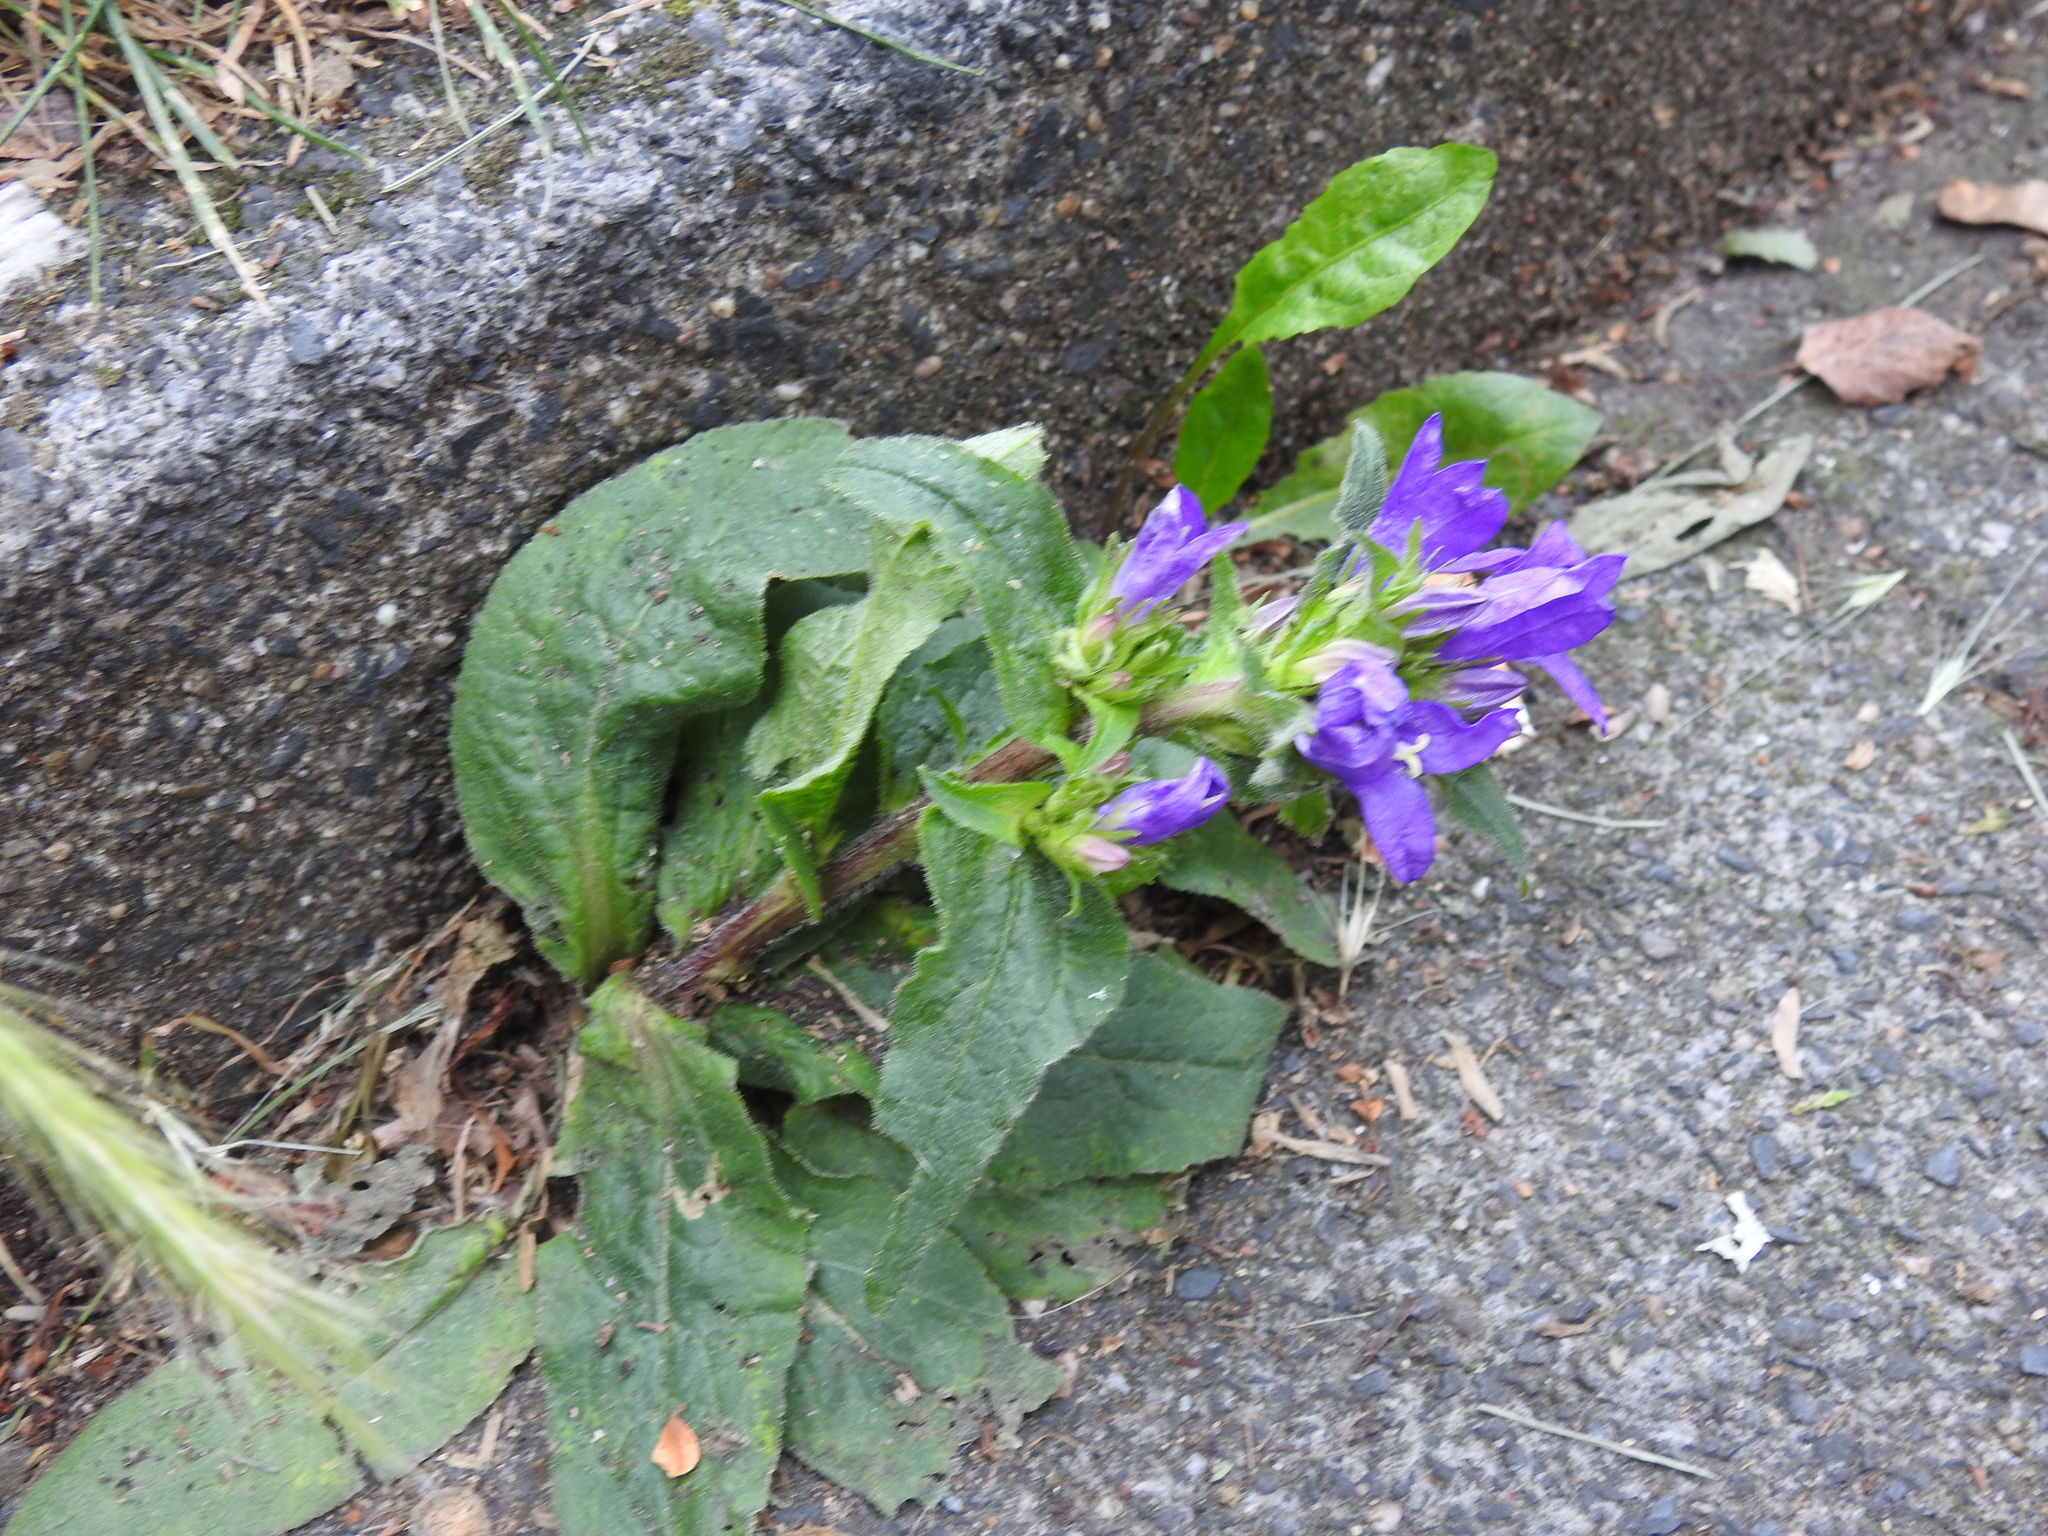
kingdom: Plantae
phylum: Tracheophyta
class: Magnoliopsida
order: Asterales
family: Campanulaceae
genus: Campanula
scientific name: Campanula glomerata
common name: Clustered bellflower
